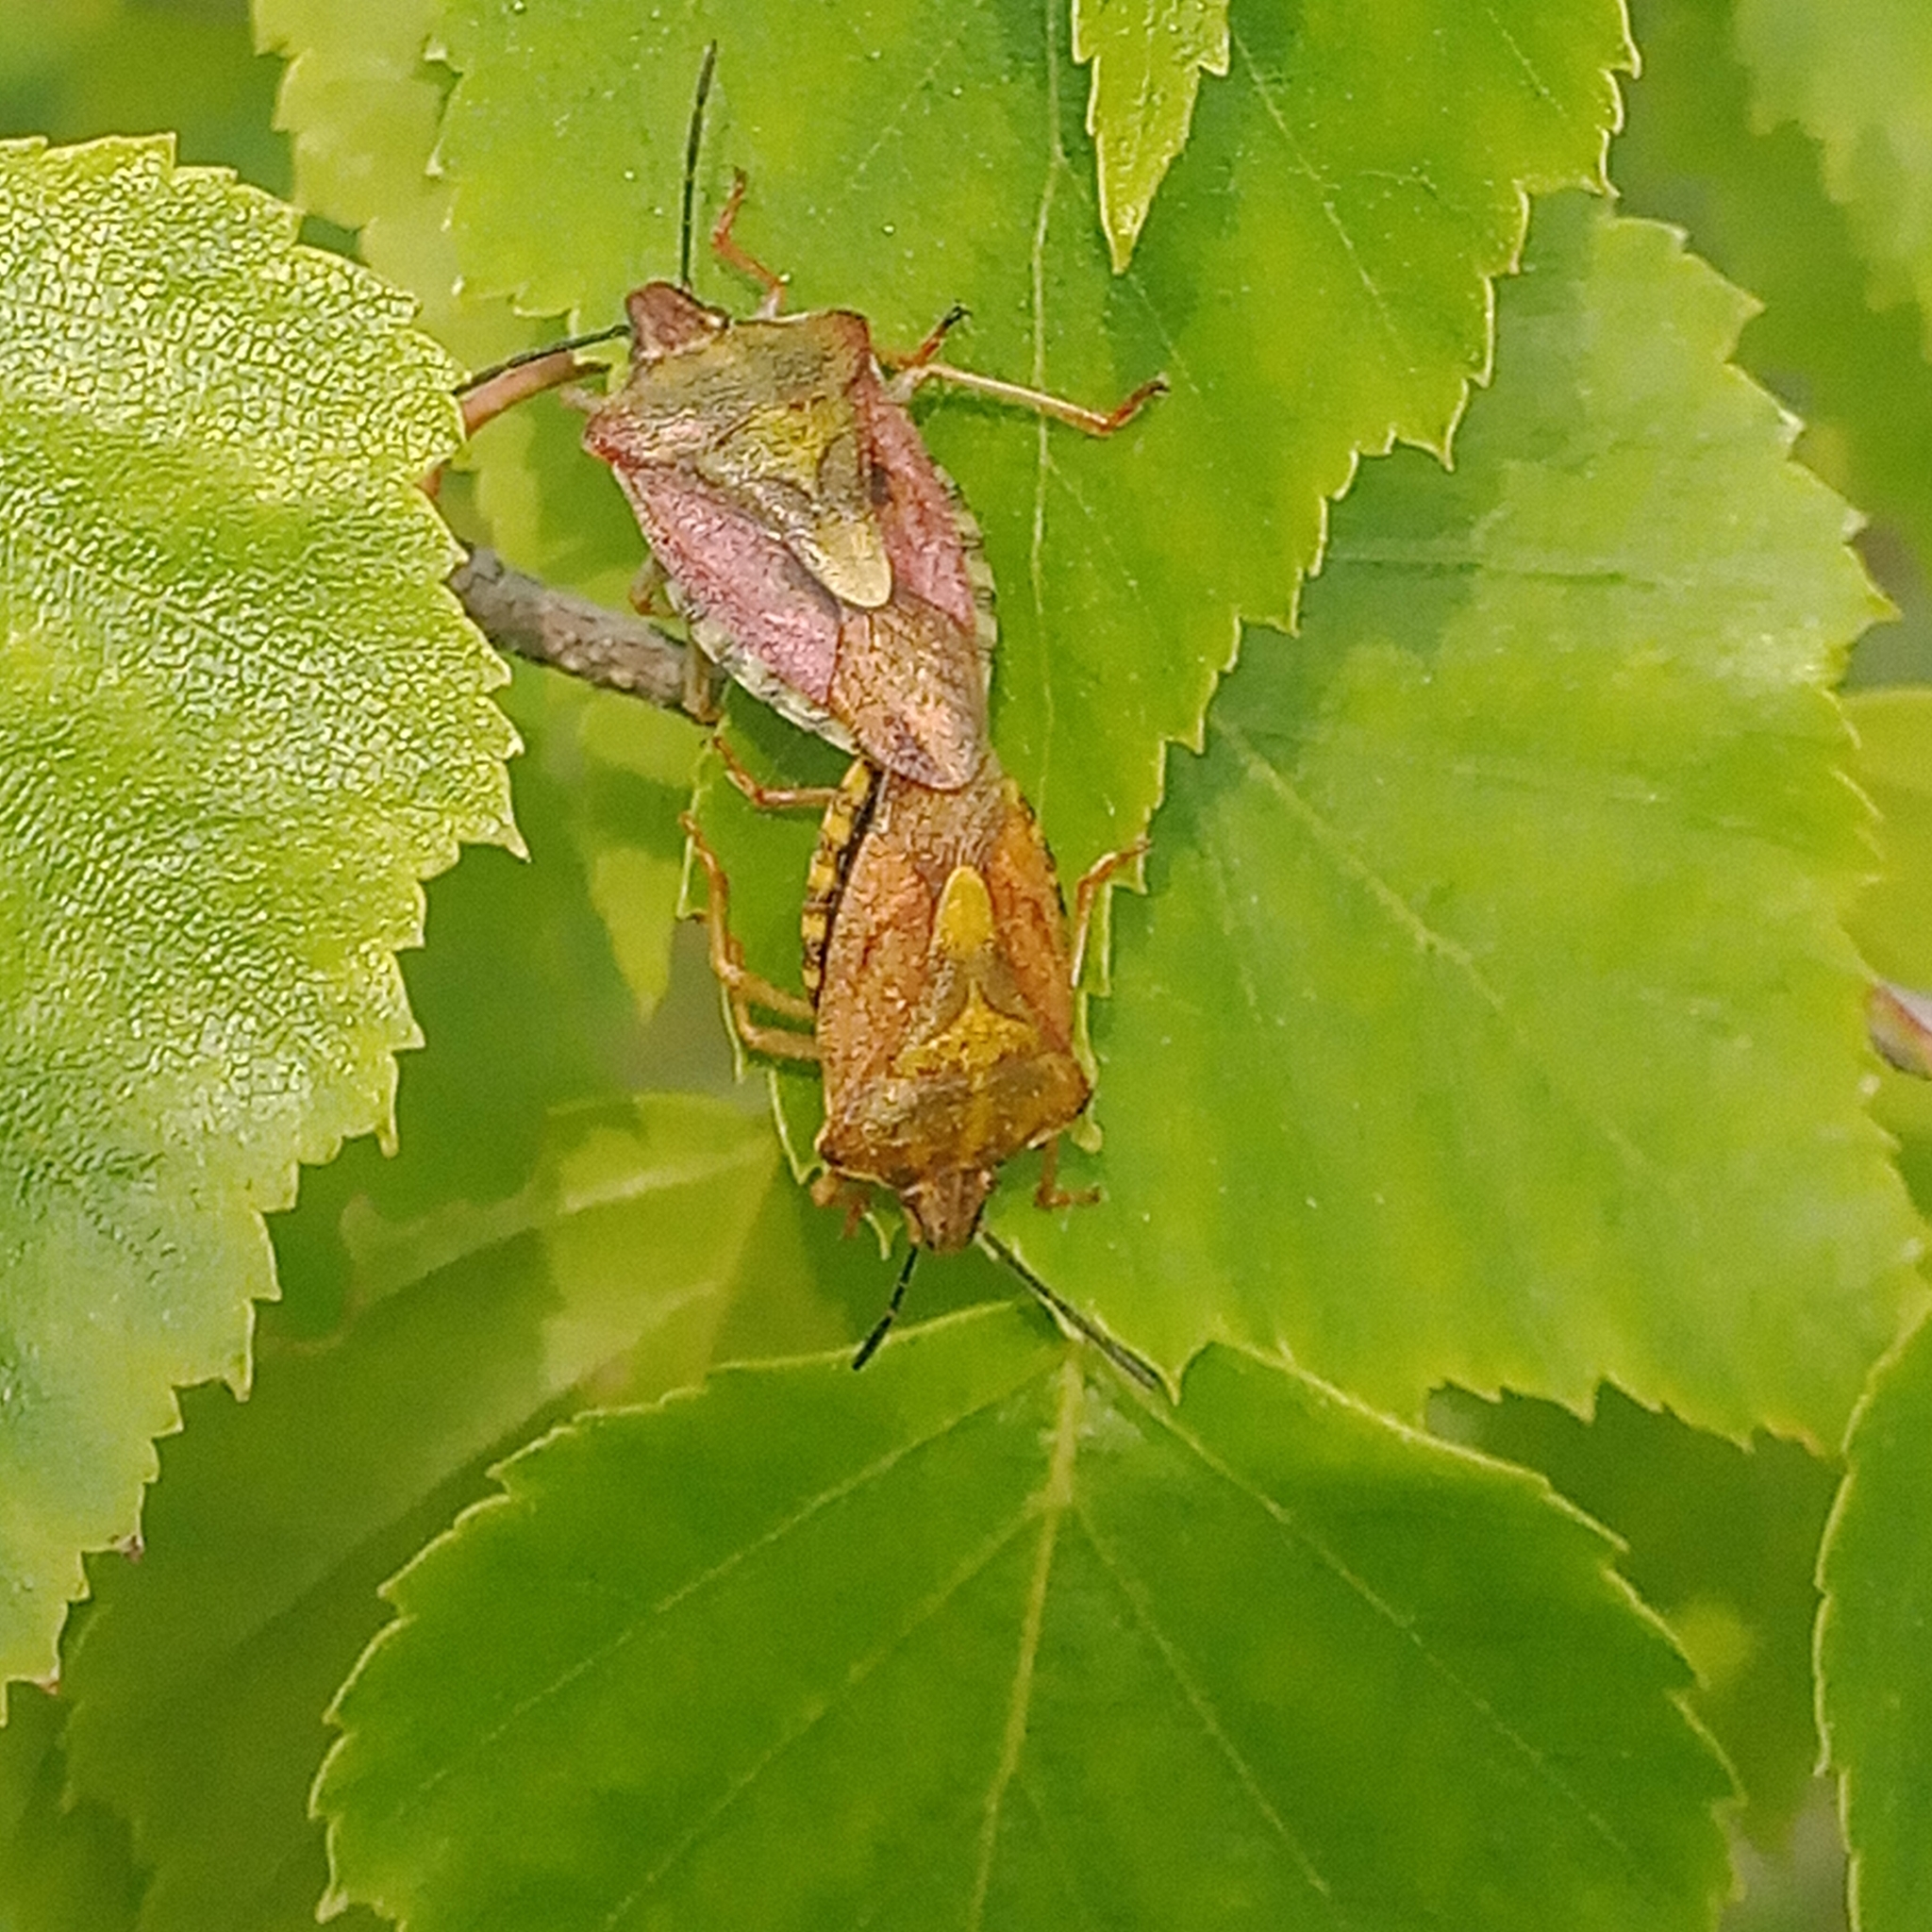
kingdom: Animalia
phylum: Arthropoda
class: Insecta
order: Hemiptera
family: Pentatomidae
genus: Carpocoris
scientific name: Carpocoris purpureipennis
